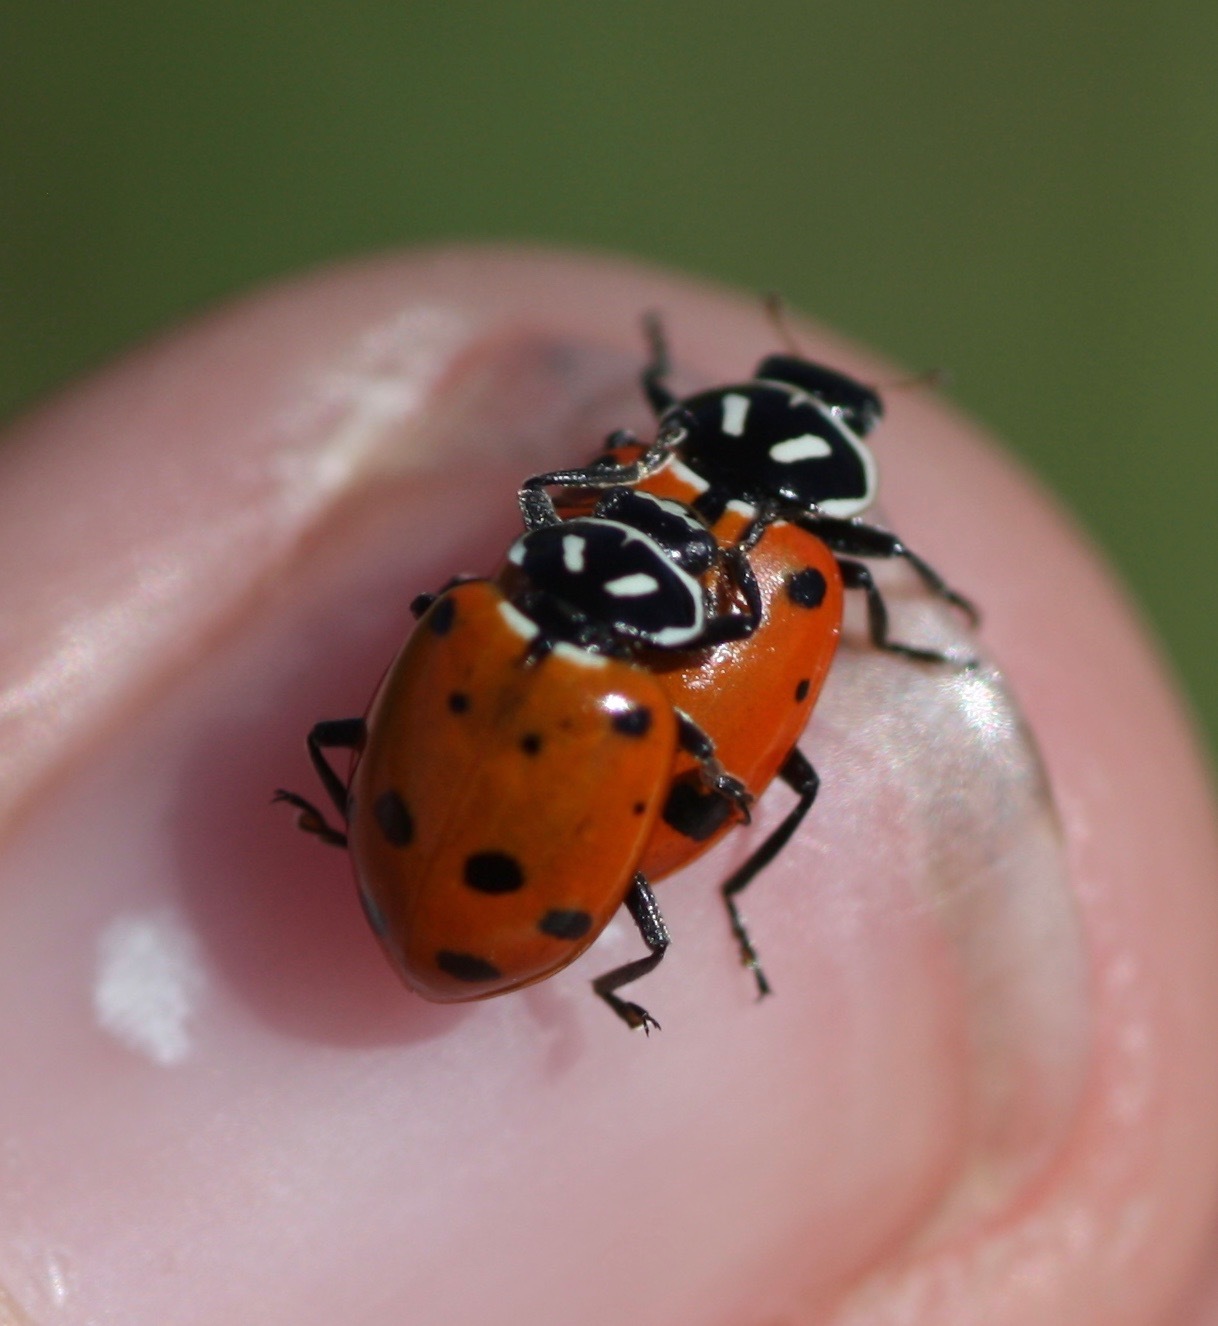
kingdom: Animalia
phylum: Arthropoda
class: Insecta
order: Coleoptera
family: Coccinellidae
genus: Hippodamia
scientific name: Hippodamia convergens
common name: Convergent lady beetle
